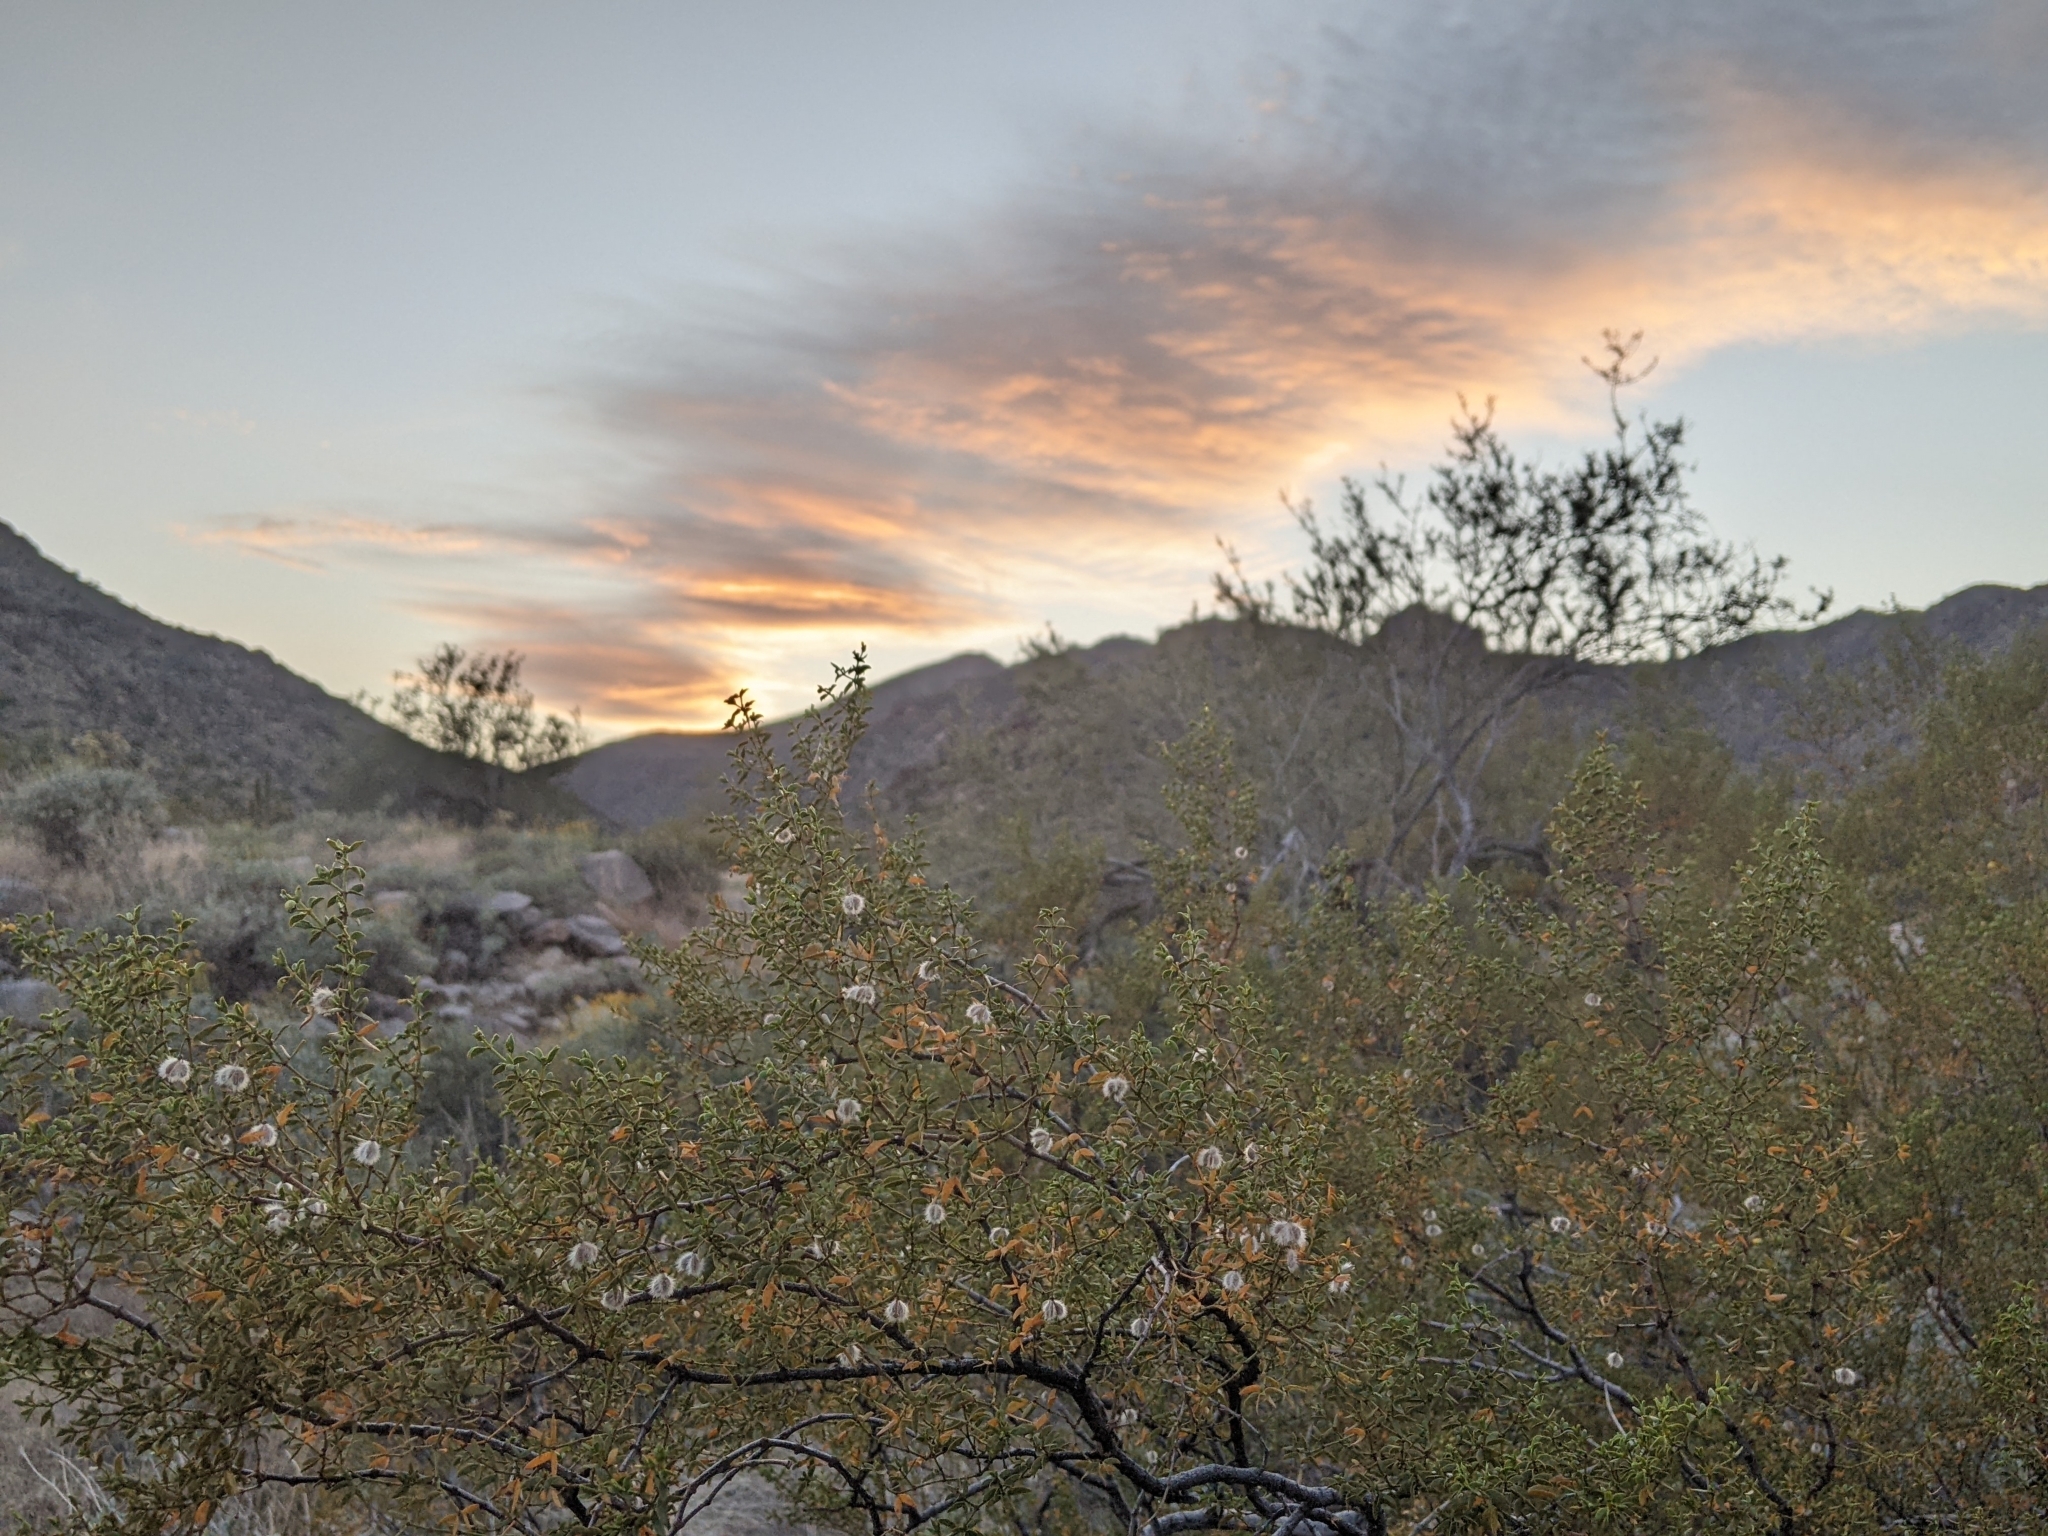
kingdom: Plantae
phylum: Tracheophyta
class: Magnoliopsida
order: Zygophyllales
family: Zygophyllaceae
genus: Larrea
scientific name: Larrea tridentata
